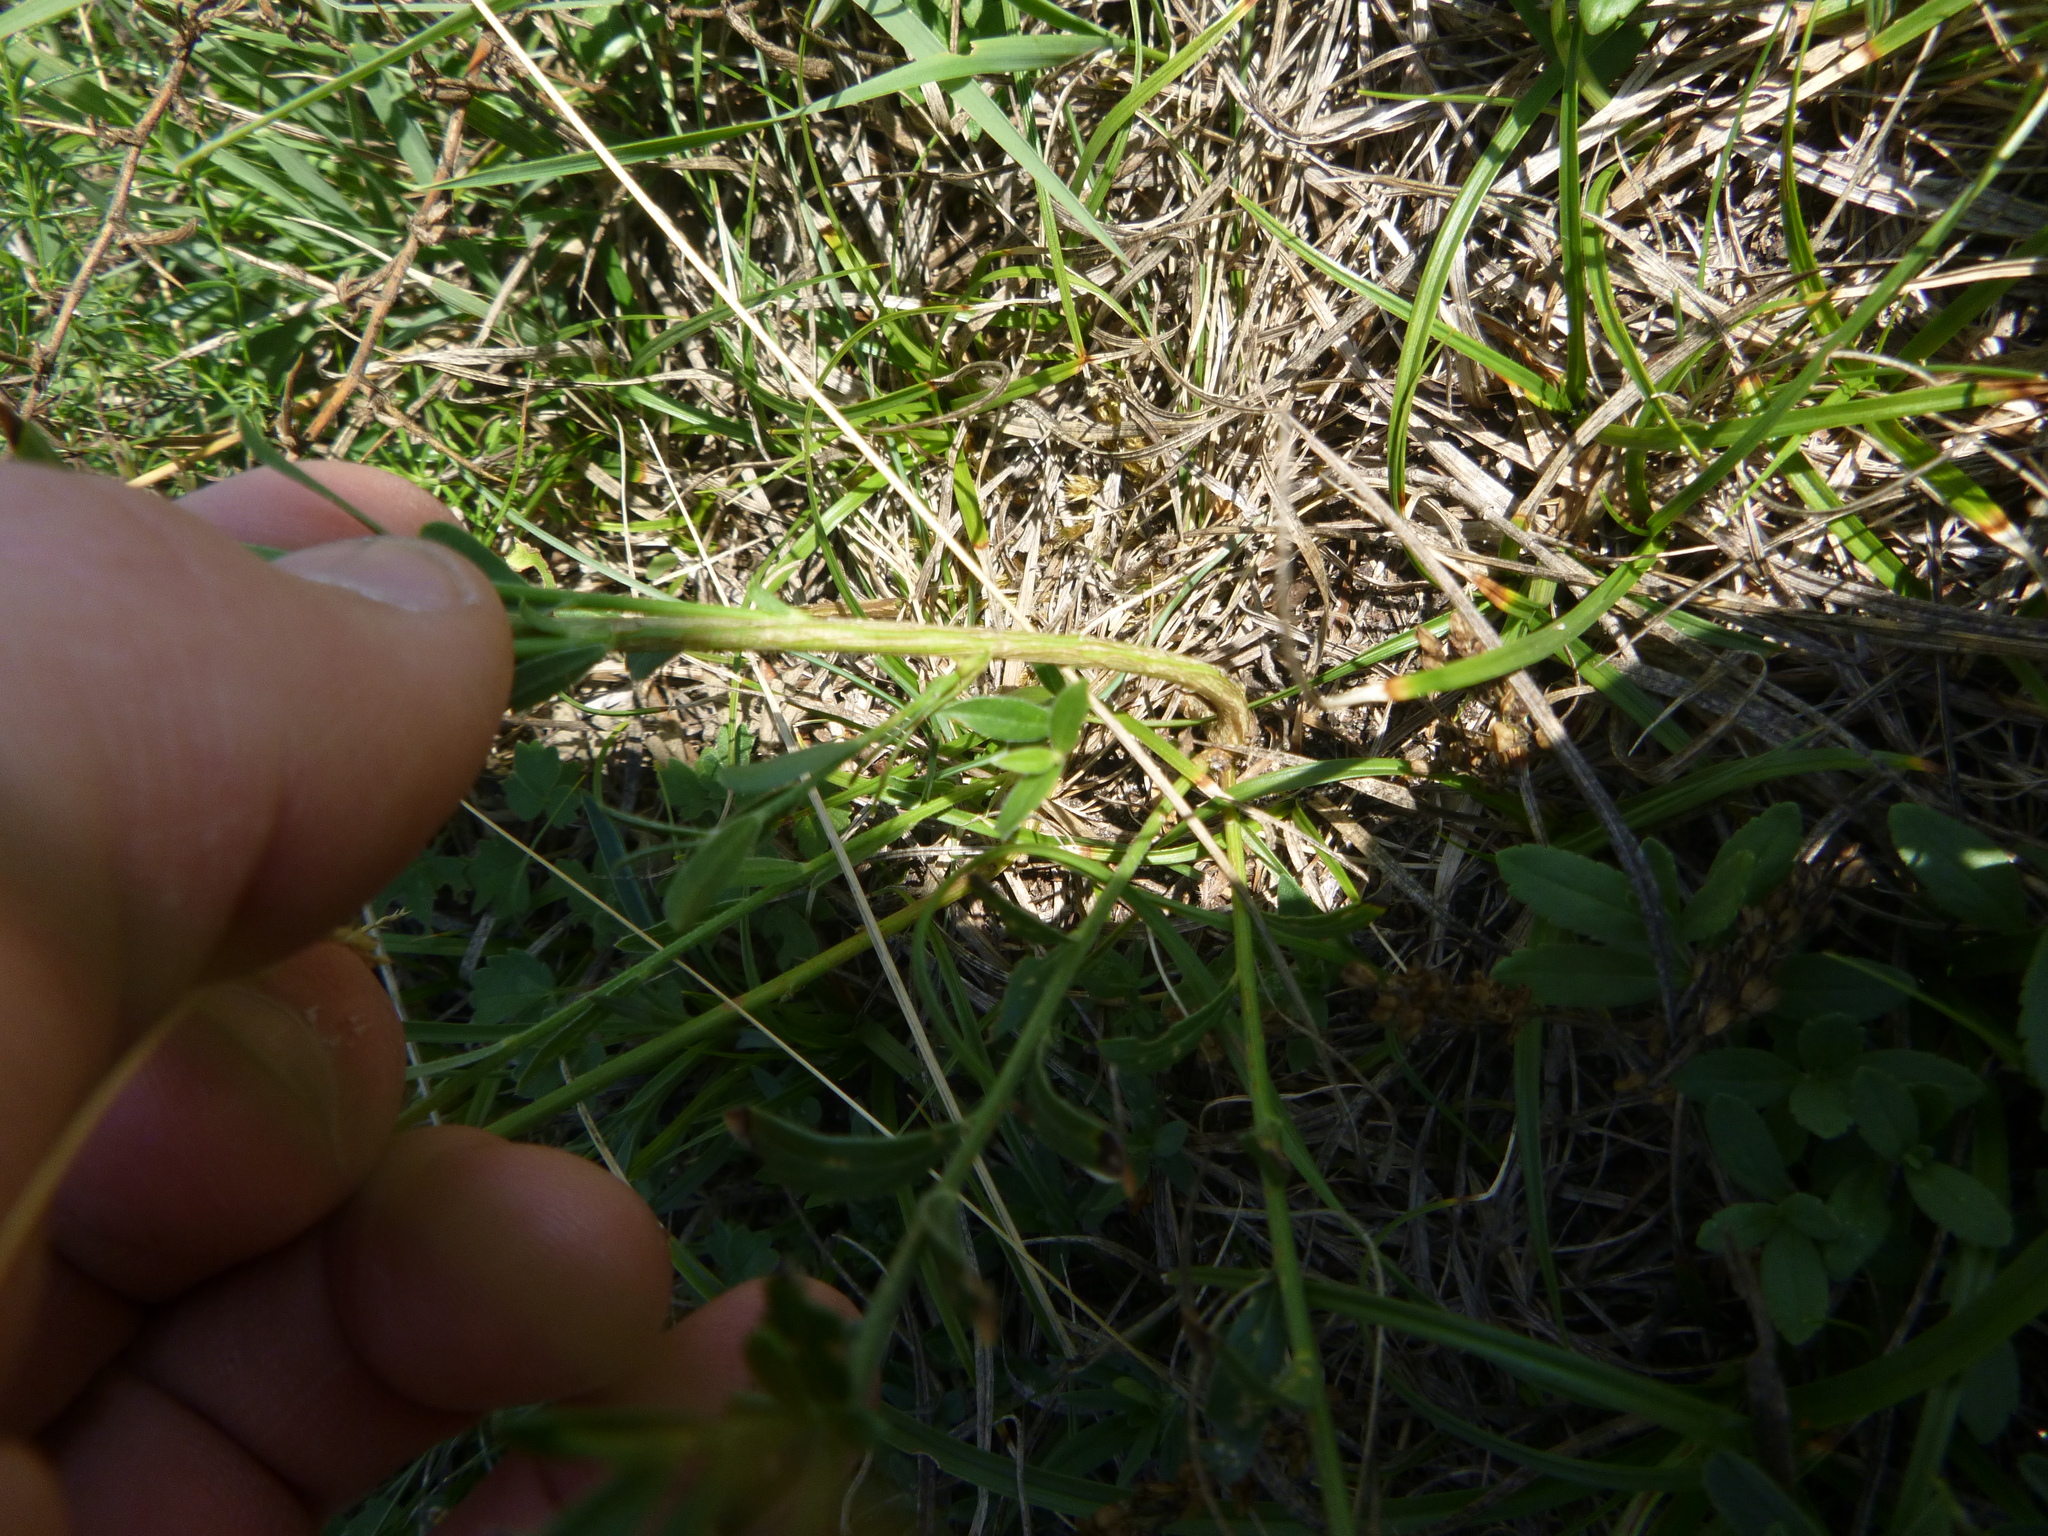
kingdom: Plantae
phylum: Tracheophyta
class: Magnoliopsida
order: Fabales
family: Fabaceae
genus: Genista
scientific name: Genista tinctoria
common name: Dyer's greenweed
